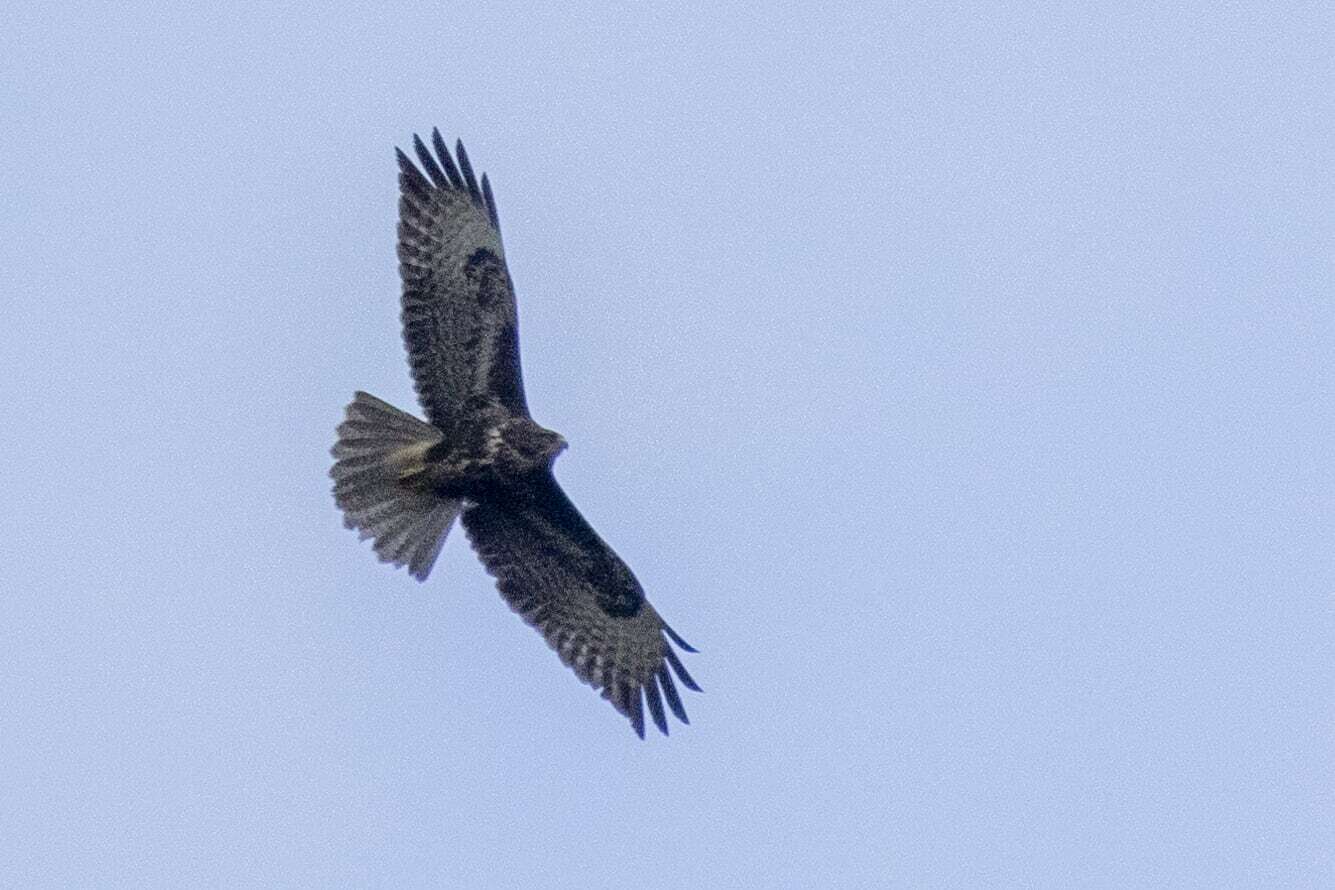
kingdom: Animalia
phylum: Chordata
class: Aves
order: Accipitriformes
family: Accipitridae
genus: Buteo
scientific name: Buteo buteo
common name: Common buzzard
